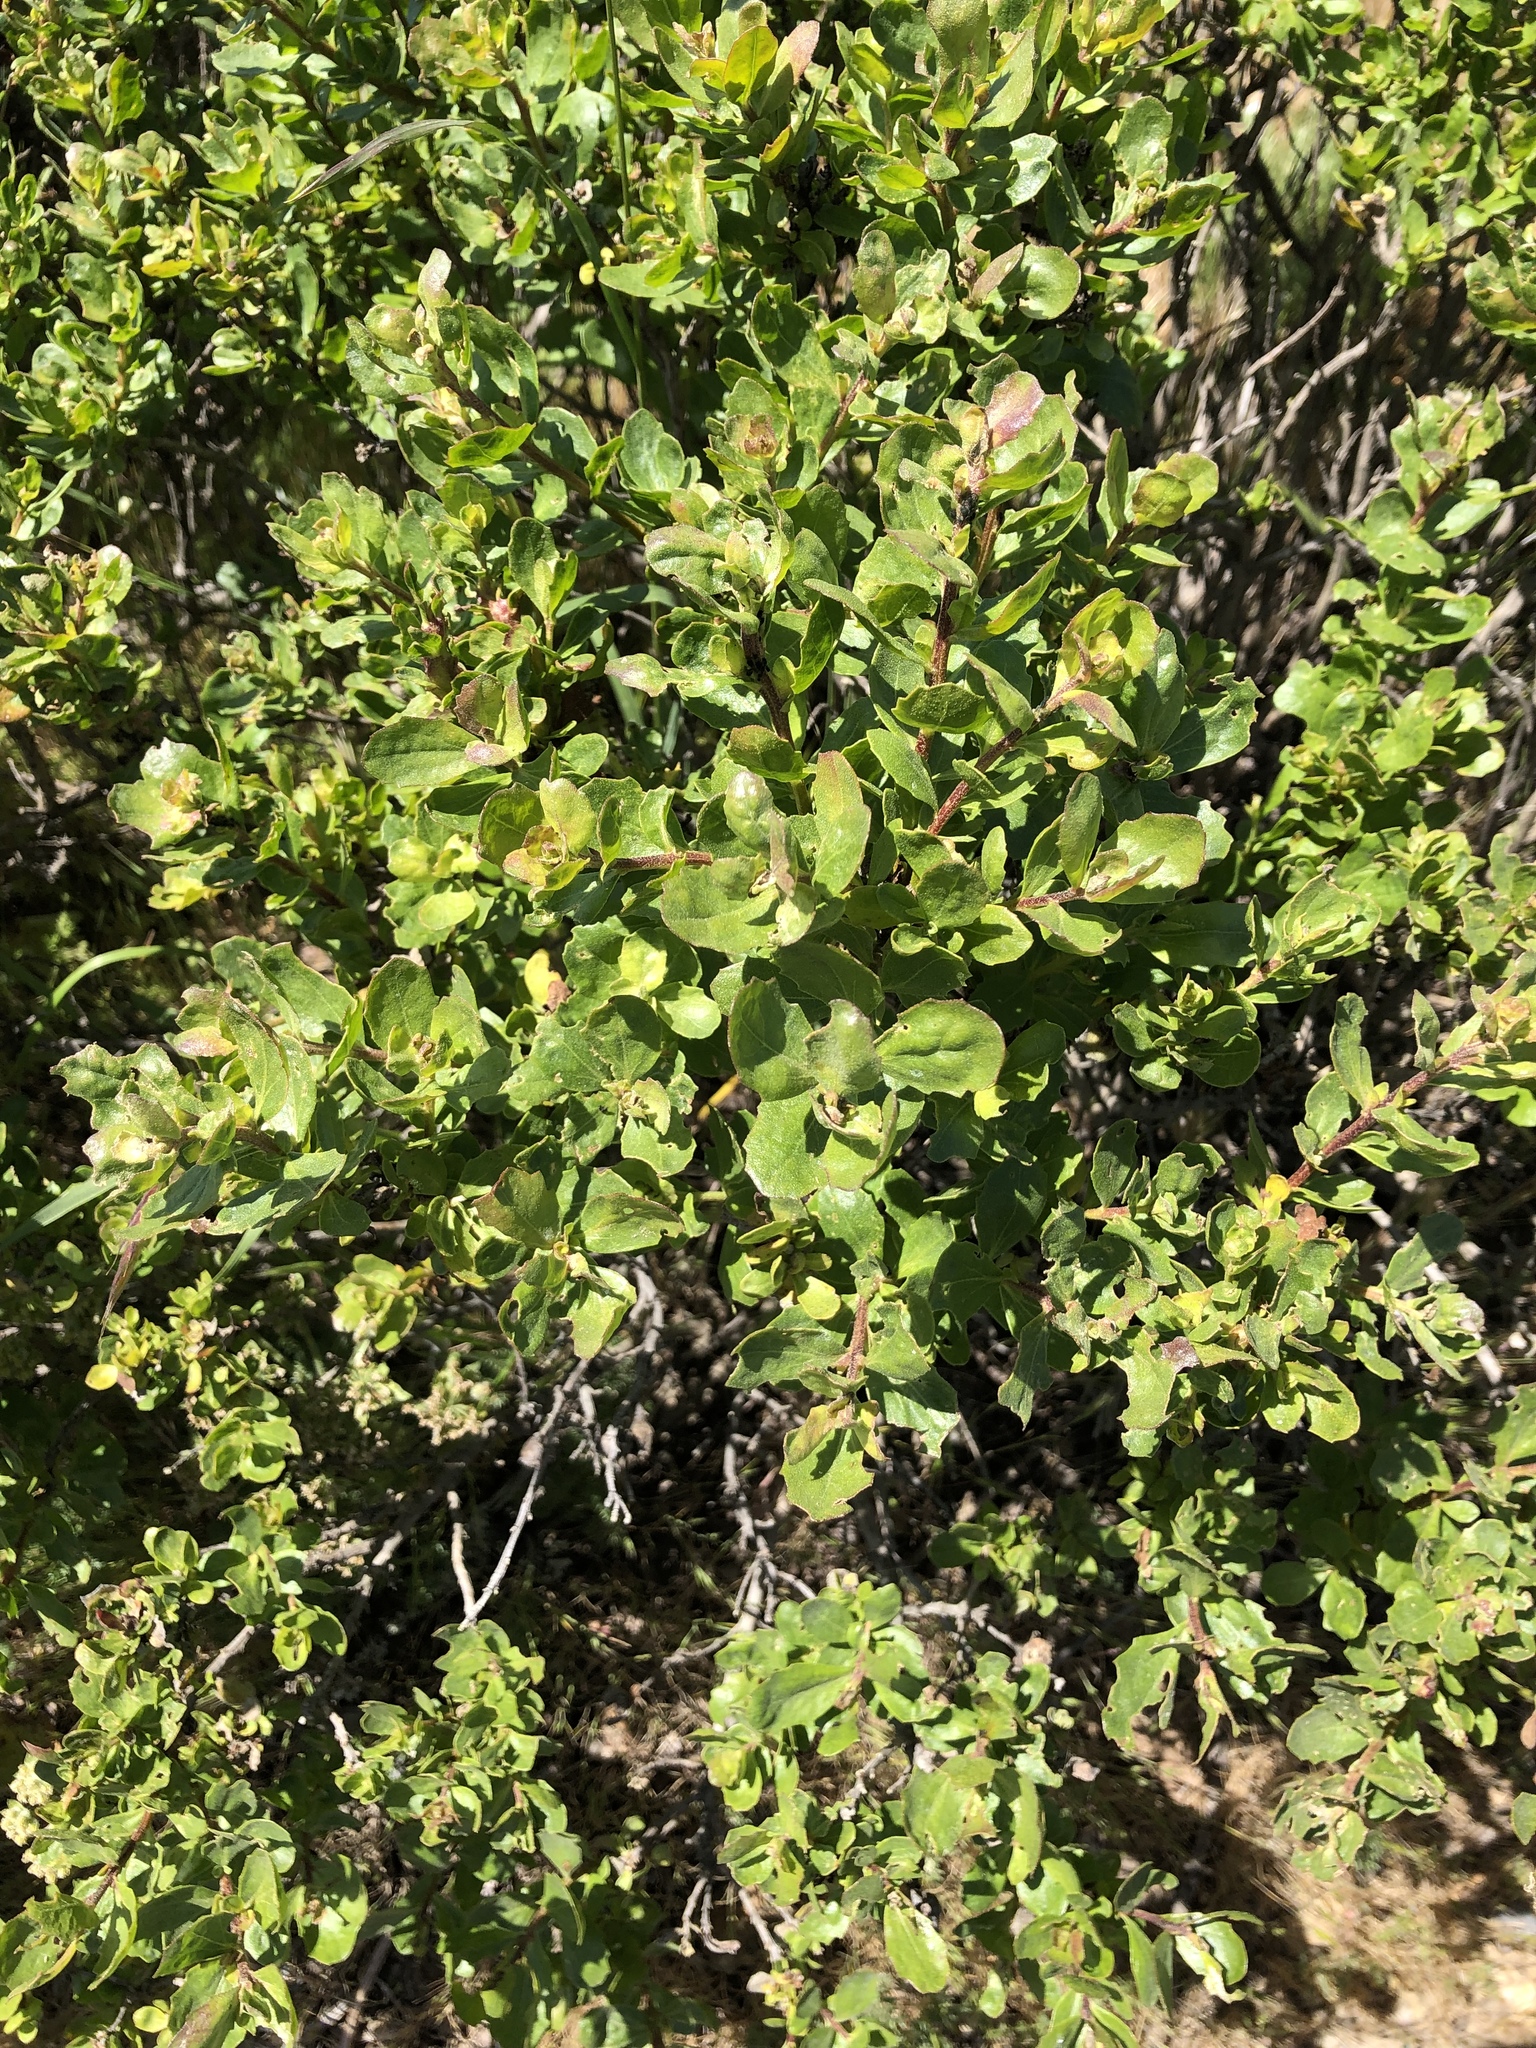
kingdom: Plantae
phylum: Tracheophyta
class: Magnoliopsida
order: Asterales
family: Asteraceae
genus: Baccharis
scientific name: Baccharis pilularis
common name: Coyotebrush
